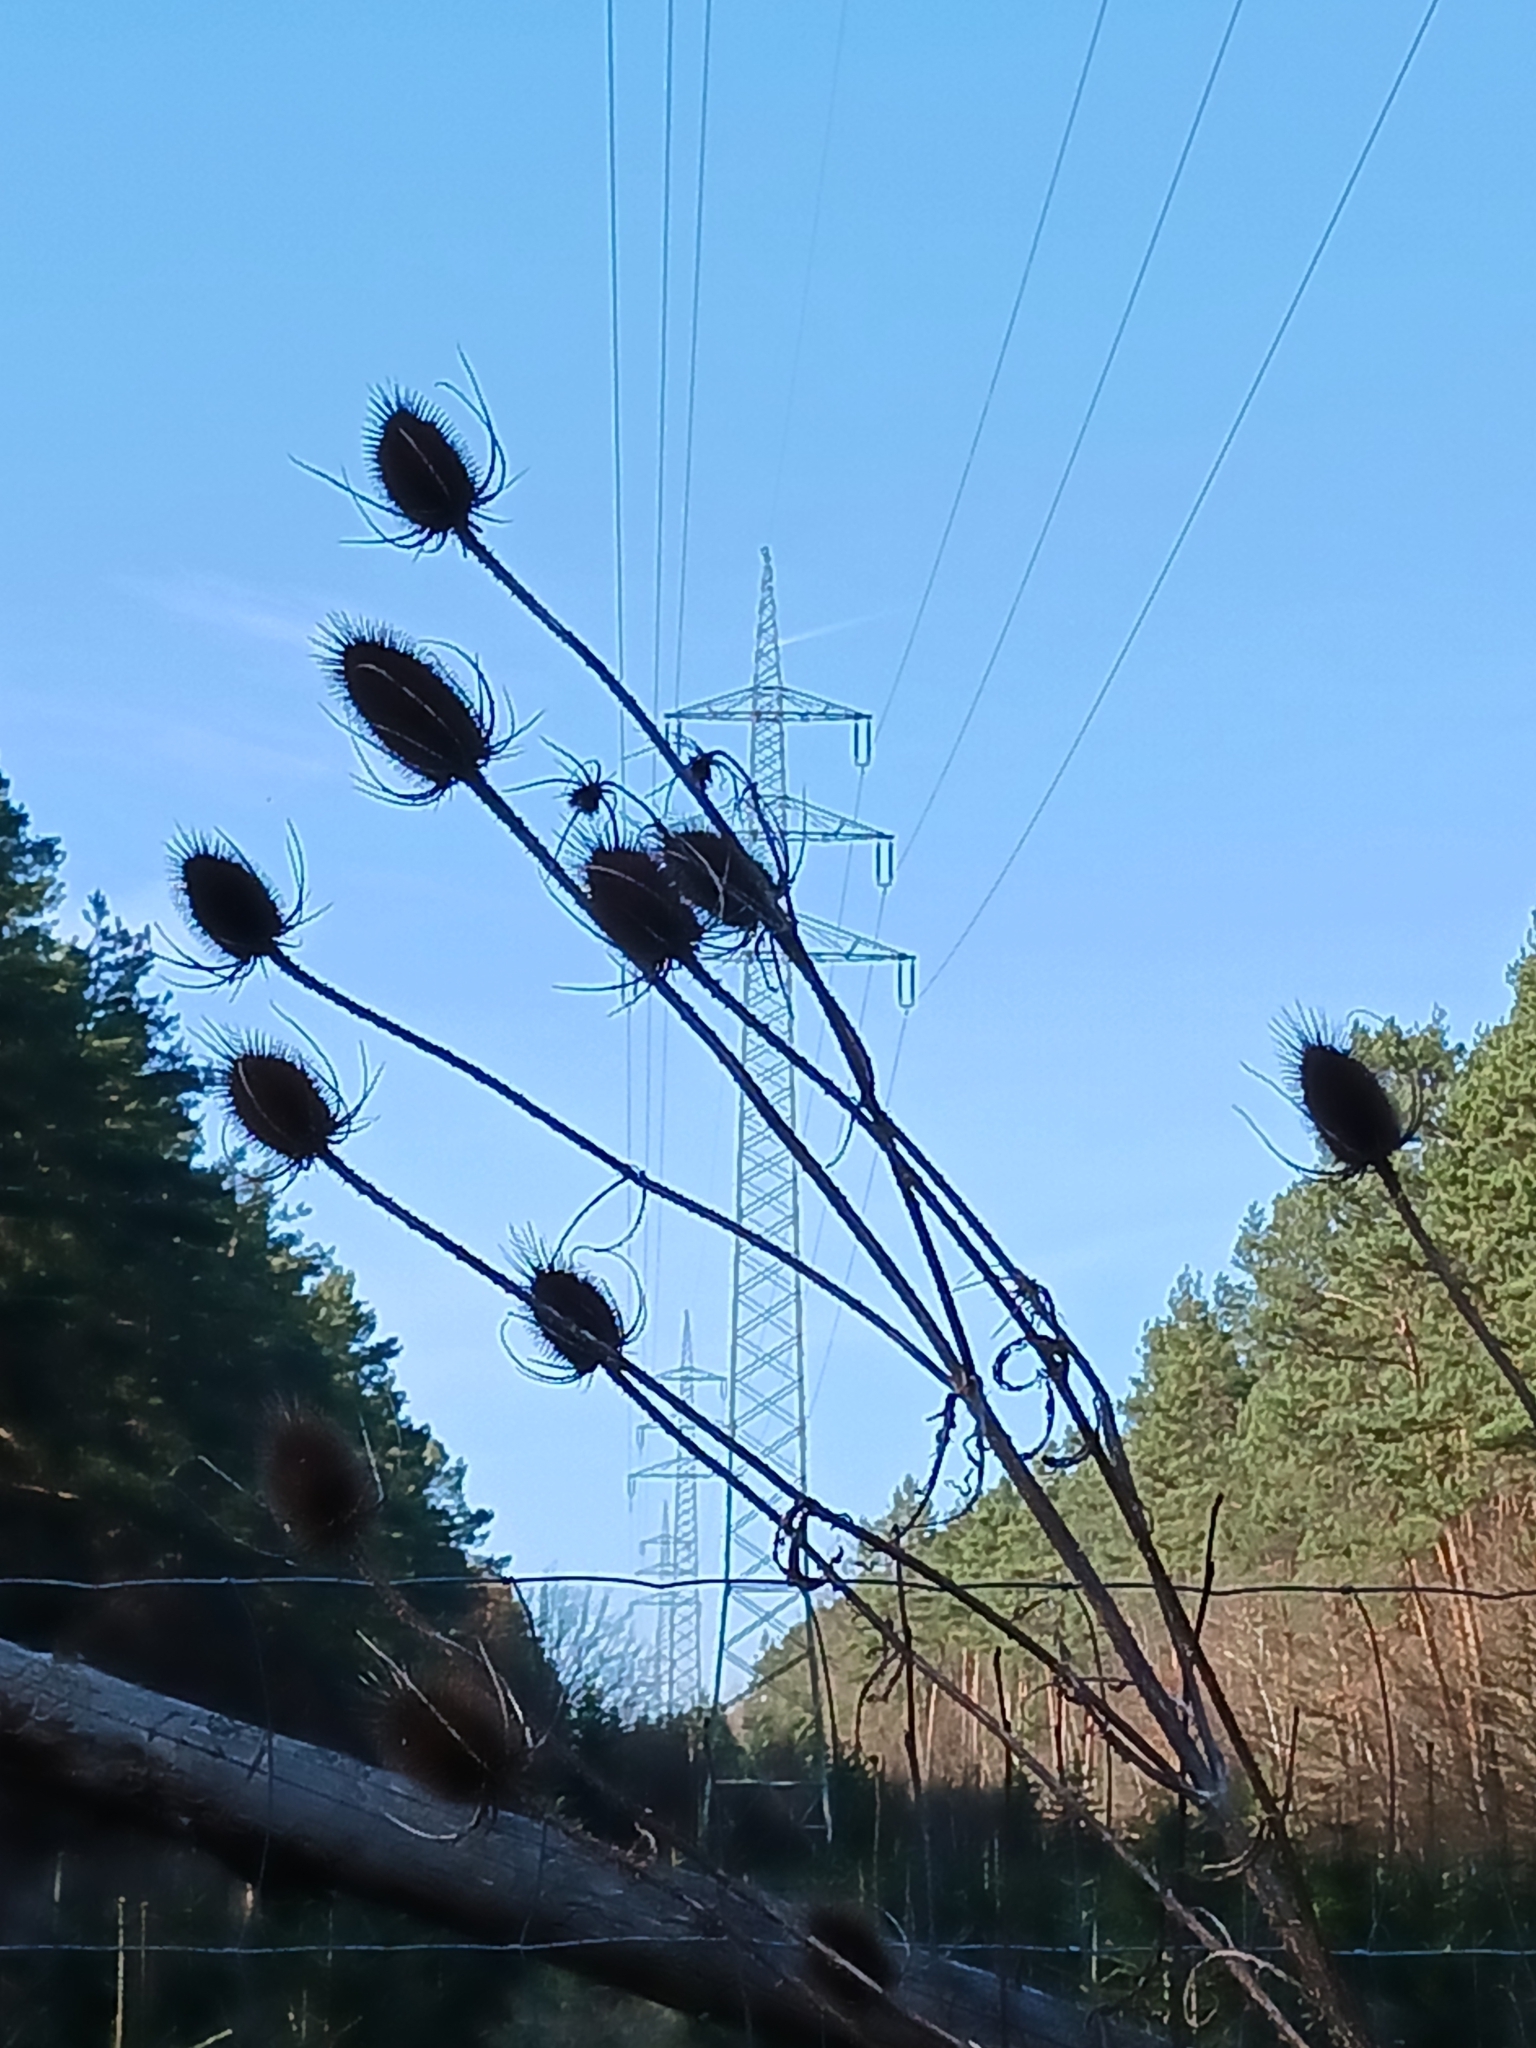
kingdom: Plantae
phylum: Tracheophyta
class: Magnoliopsida
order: Dipsacales
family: Caprifoliaceae
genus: Dipsacus
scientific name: Dipsacus fullonum
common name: Teasel
